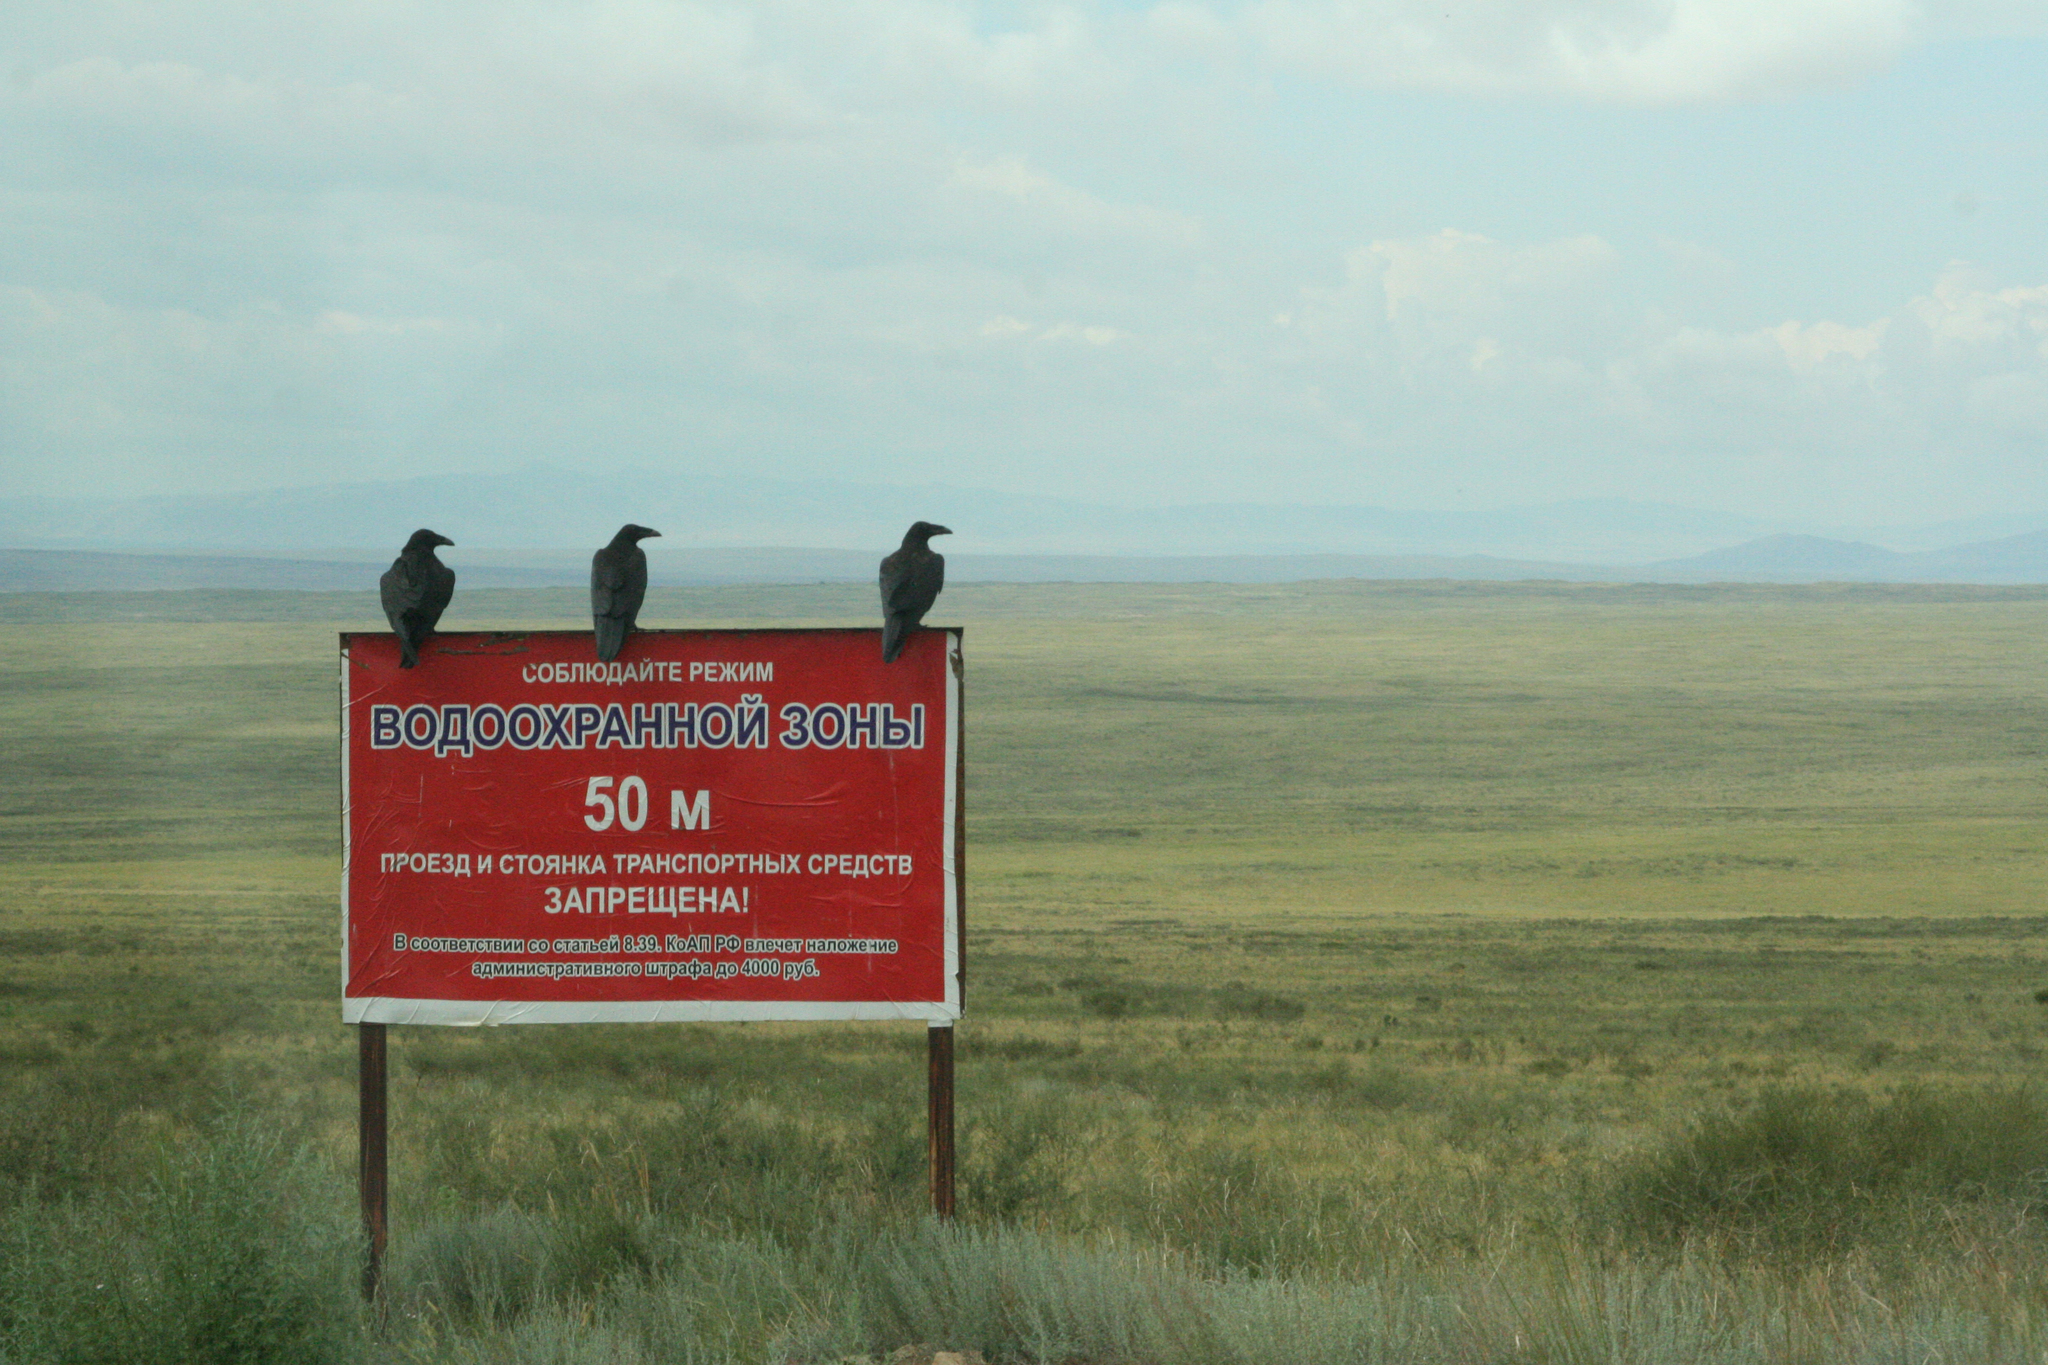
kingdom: Animalia
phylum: Chordata
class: Aves
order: Passeriformes
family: Corvidae
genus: Corvus
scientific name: Corvus corax
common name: Common raven
